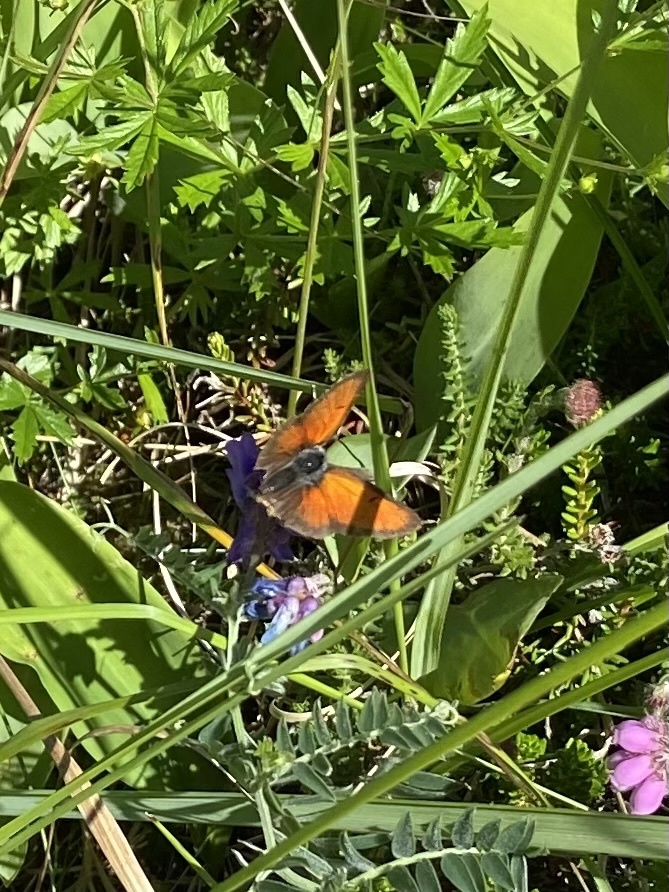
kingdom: Animalia
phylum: Arthropoda
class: Insecta
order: Lepidoptera
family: Lycaenidae
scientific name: Lycaenidae
